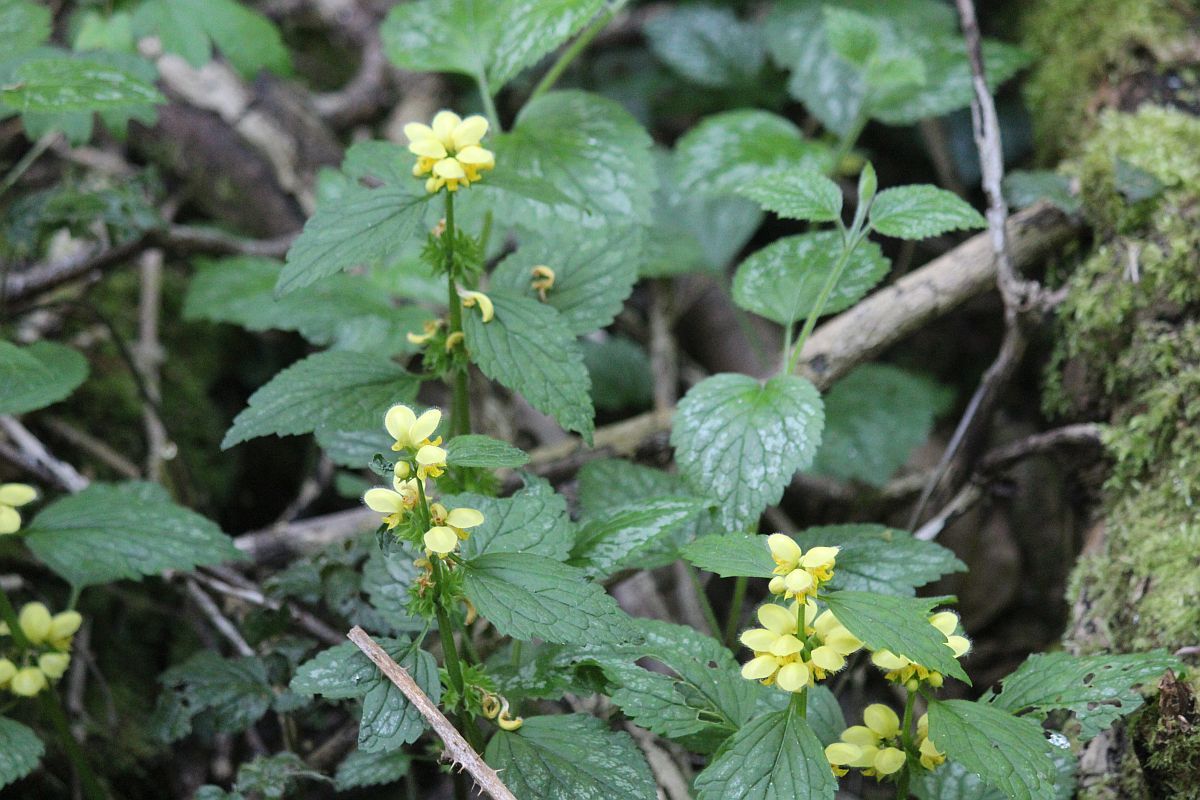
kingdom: Plantae
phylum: Tracheophyta
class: Magnoliopsida
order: Lamiales
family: Lamiaceae
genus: Lamium
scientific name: Lamium galeobdolon
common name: Yellow archangel
